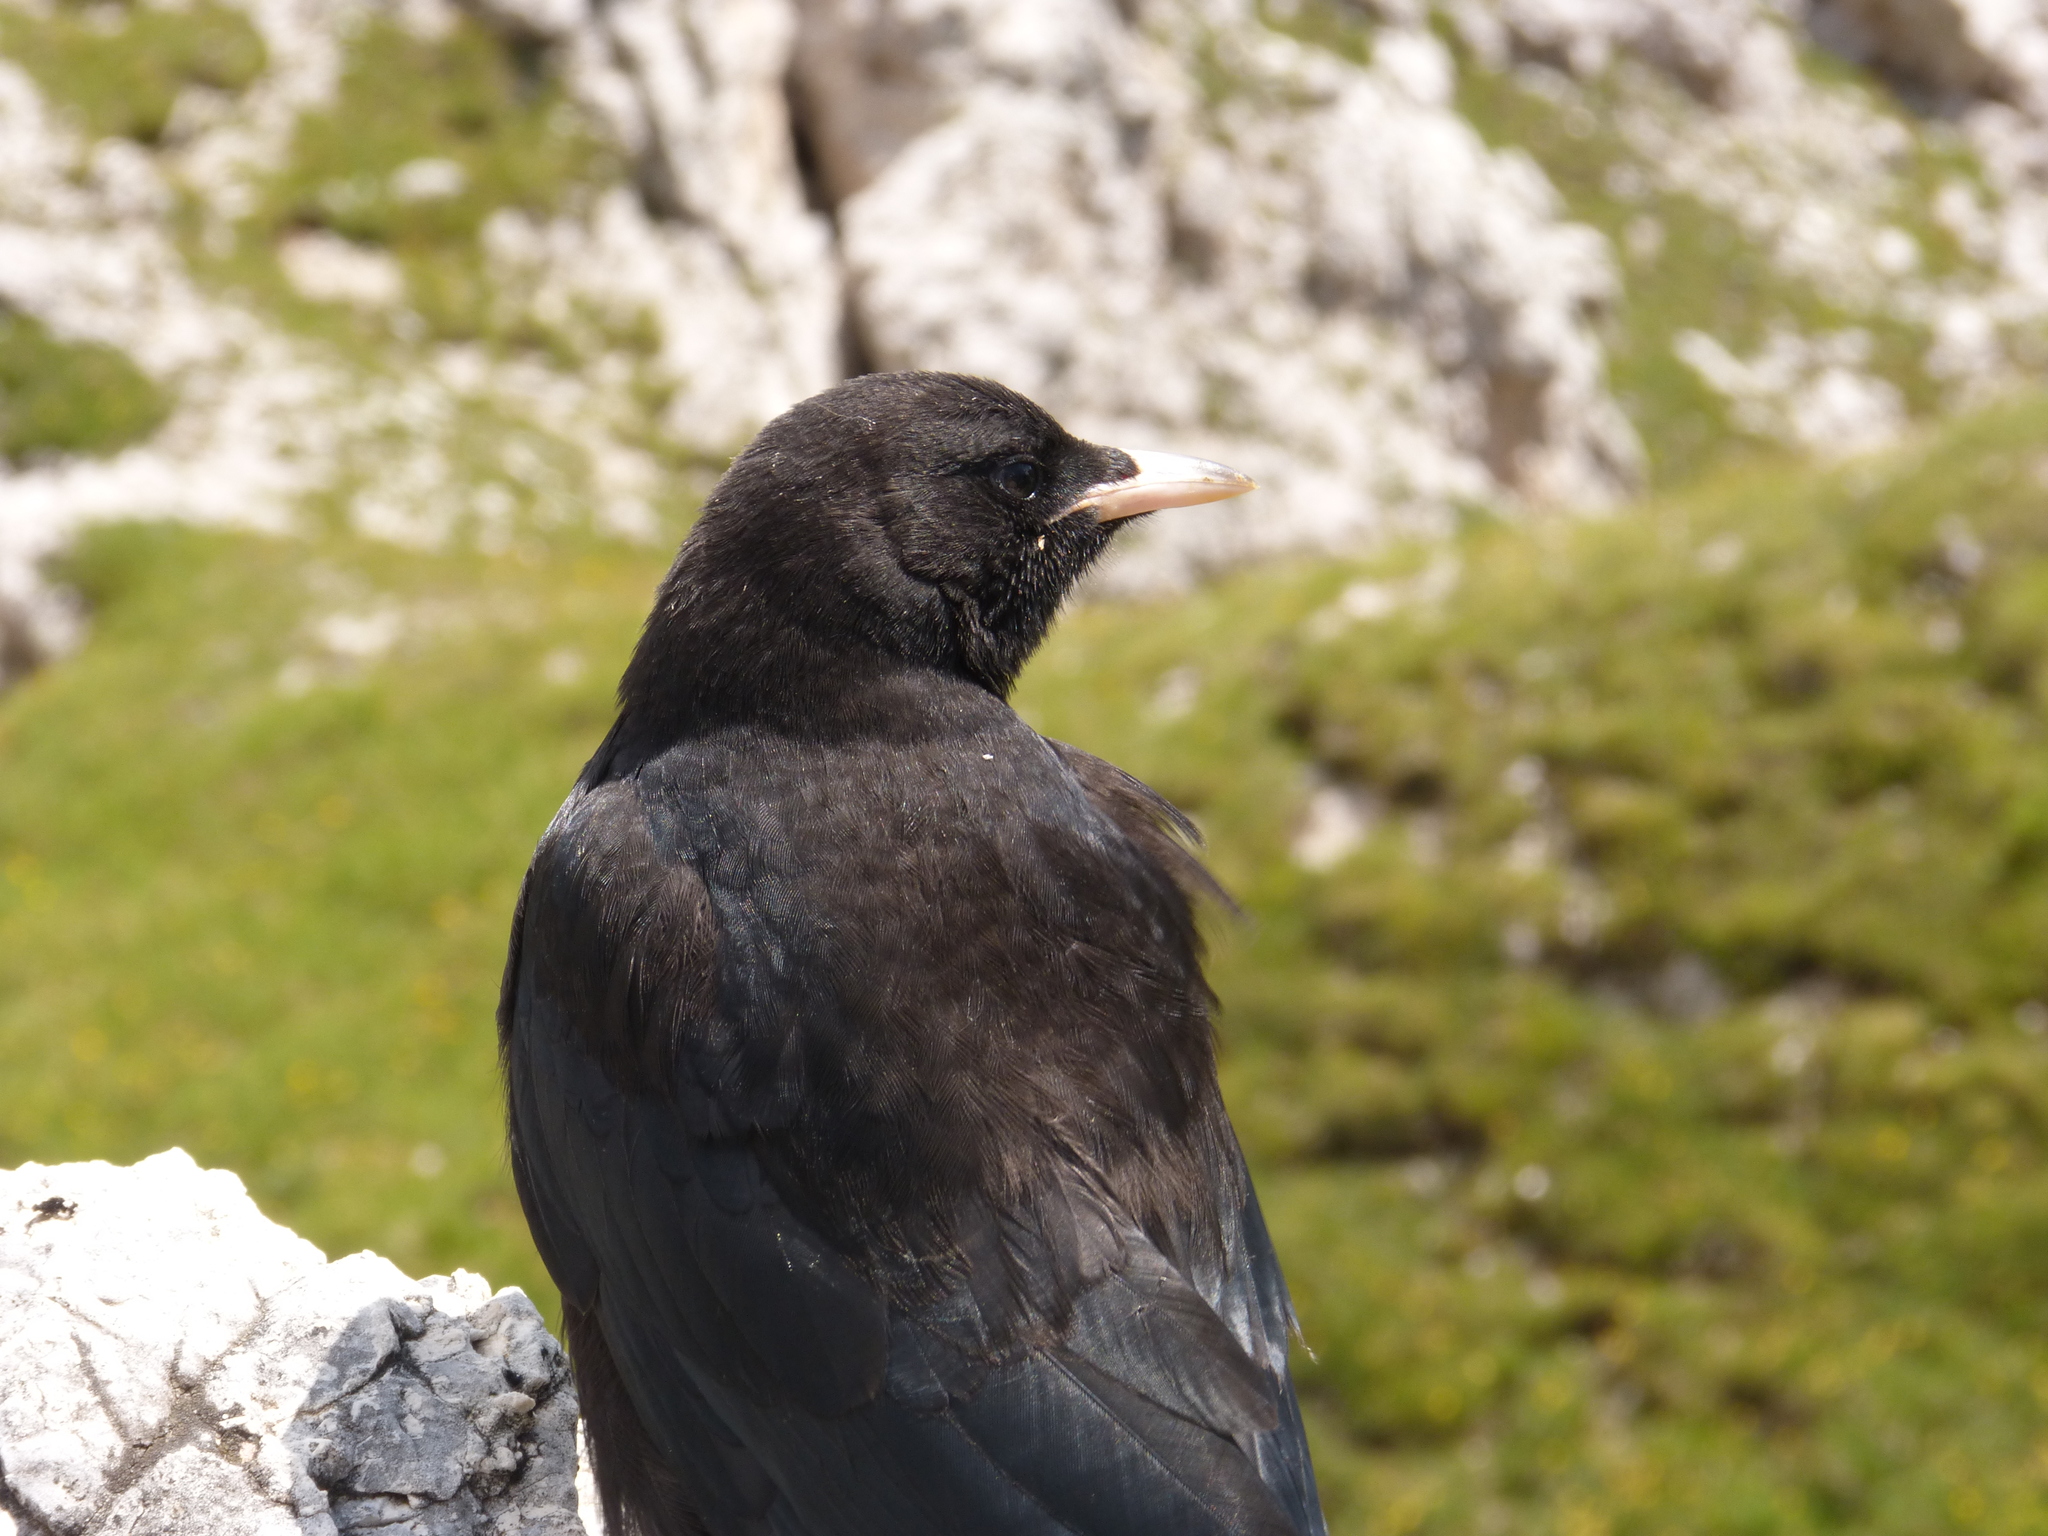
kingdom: Animalia
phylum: Chordata
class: Aves
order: Passeriformes
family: Corvidae
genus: Pyrrhocorax
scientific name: Pyrrhocorax graculus
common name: Alpine chough
